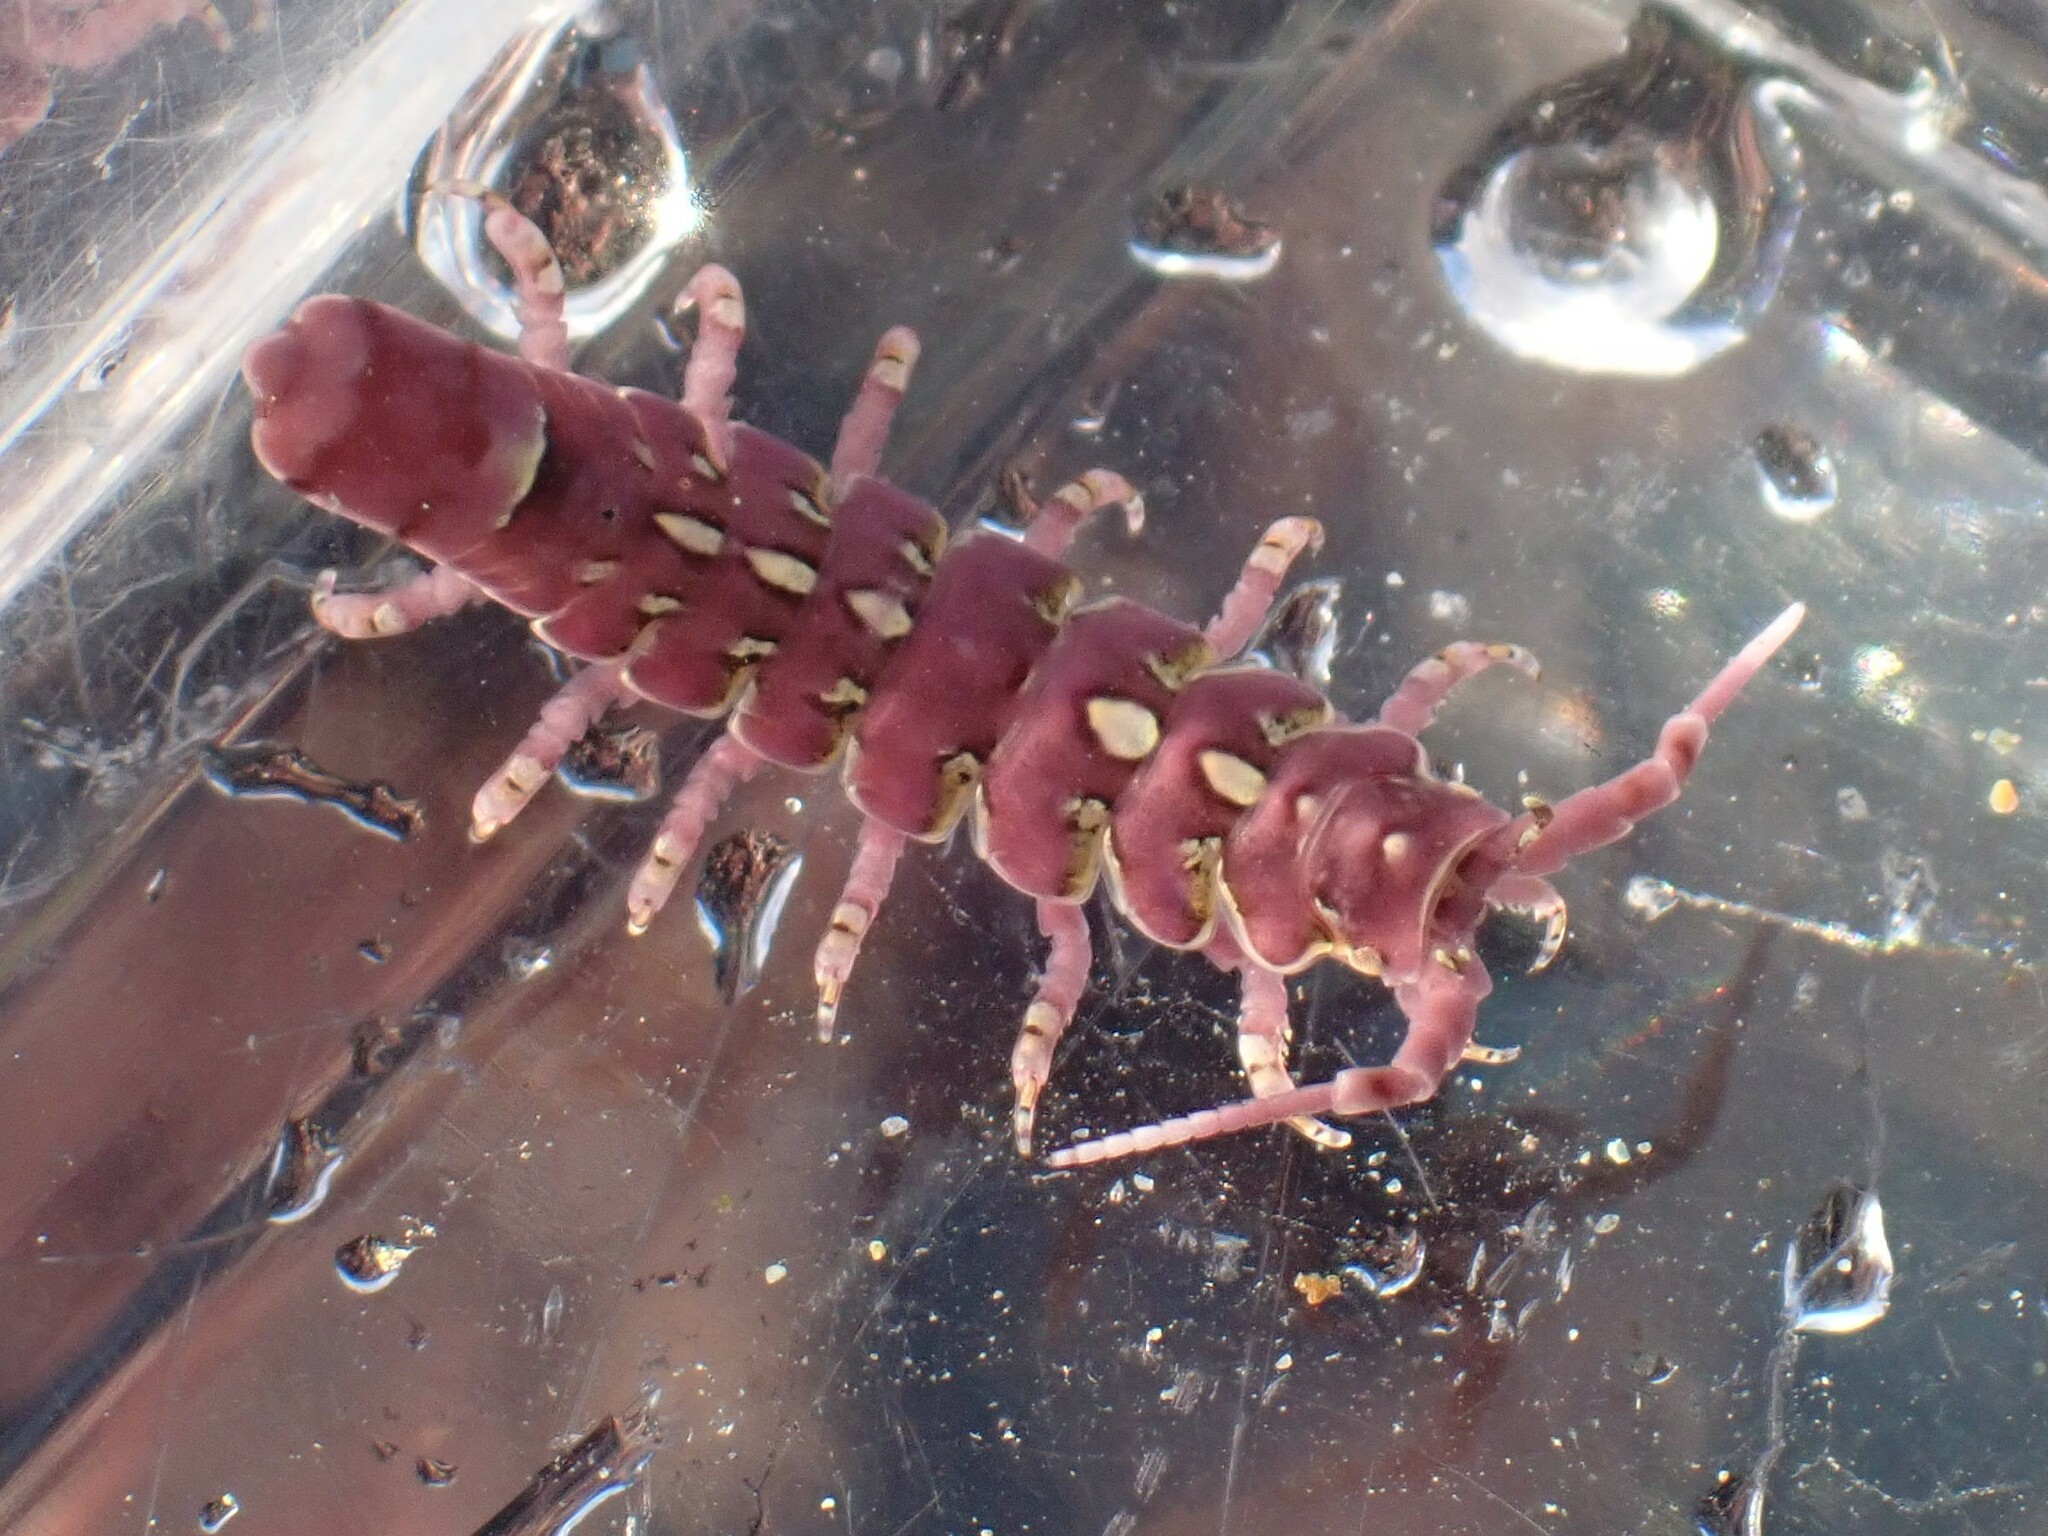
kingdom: Animalia
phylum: Arthropoda
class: Malacostraca
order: Isopoda
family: Idoteidae
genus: Pentidotea
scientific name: Pentidotea aculeata
